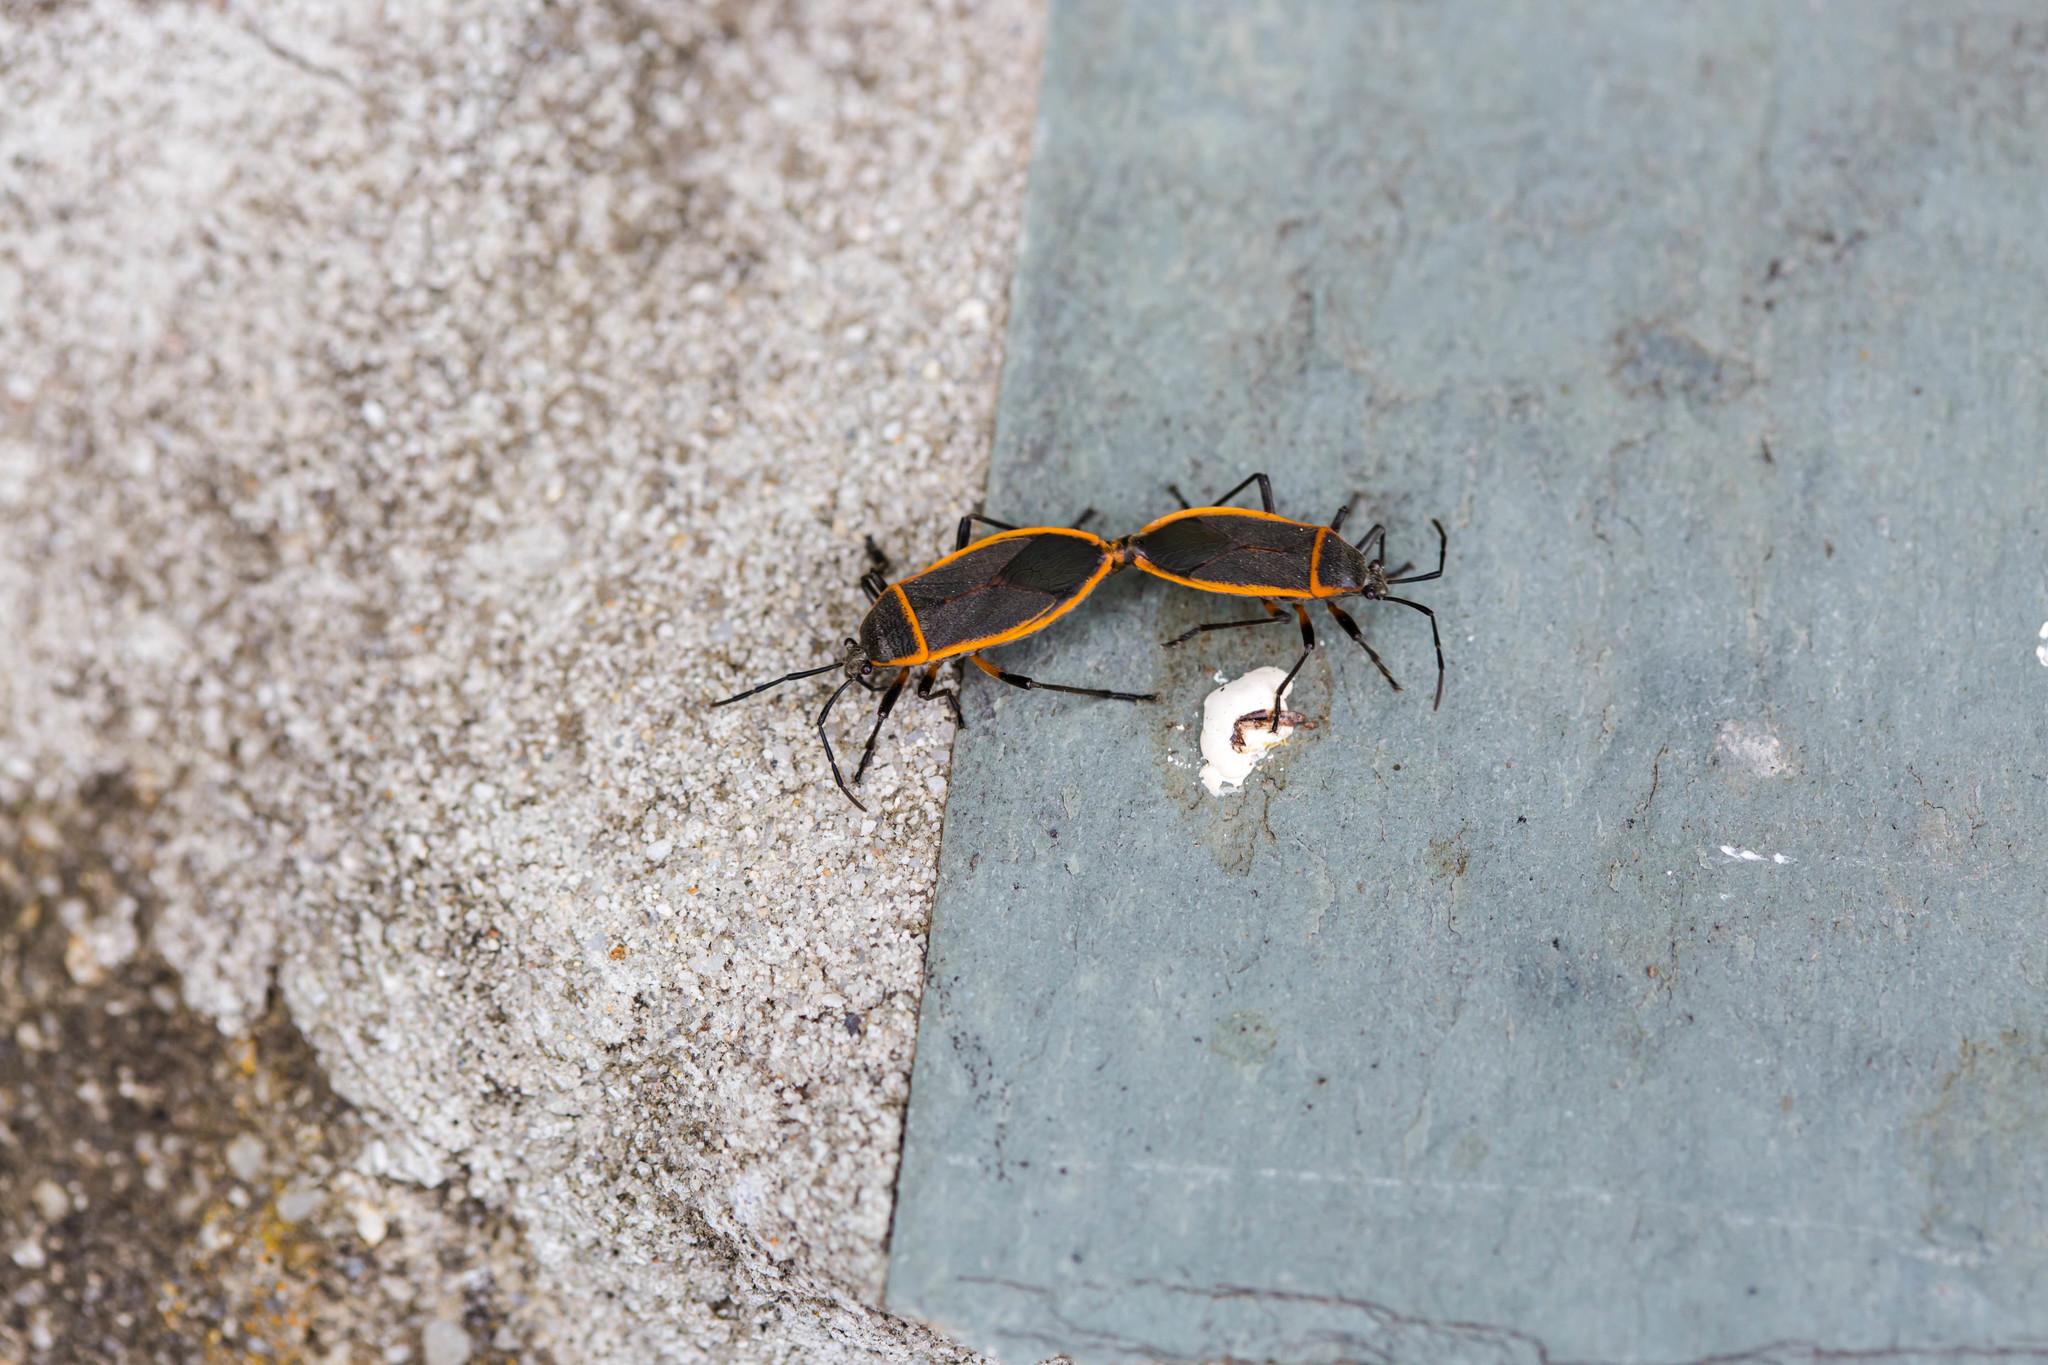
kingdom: Animalia
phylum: Arthropoda
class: Insecta
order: Hemiptera
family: Largidae
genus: Largus
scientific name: Largus succinctus
